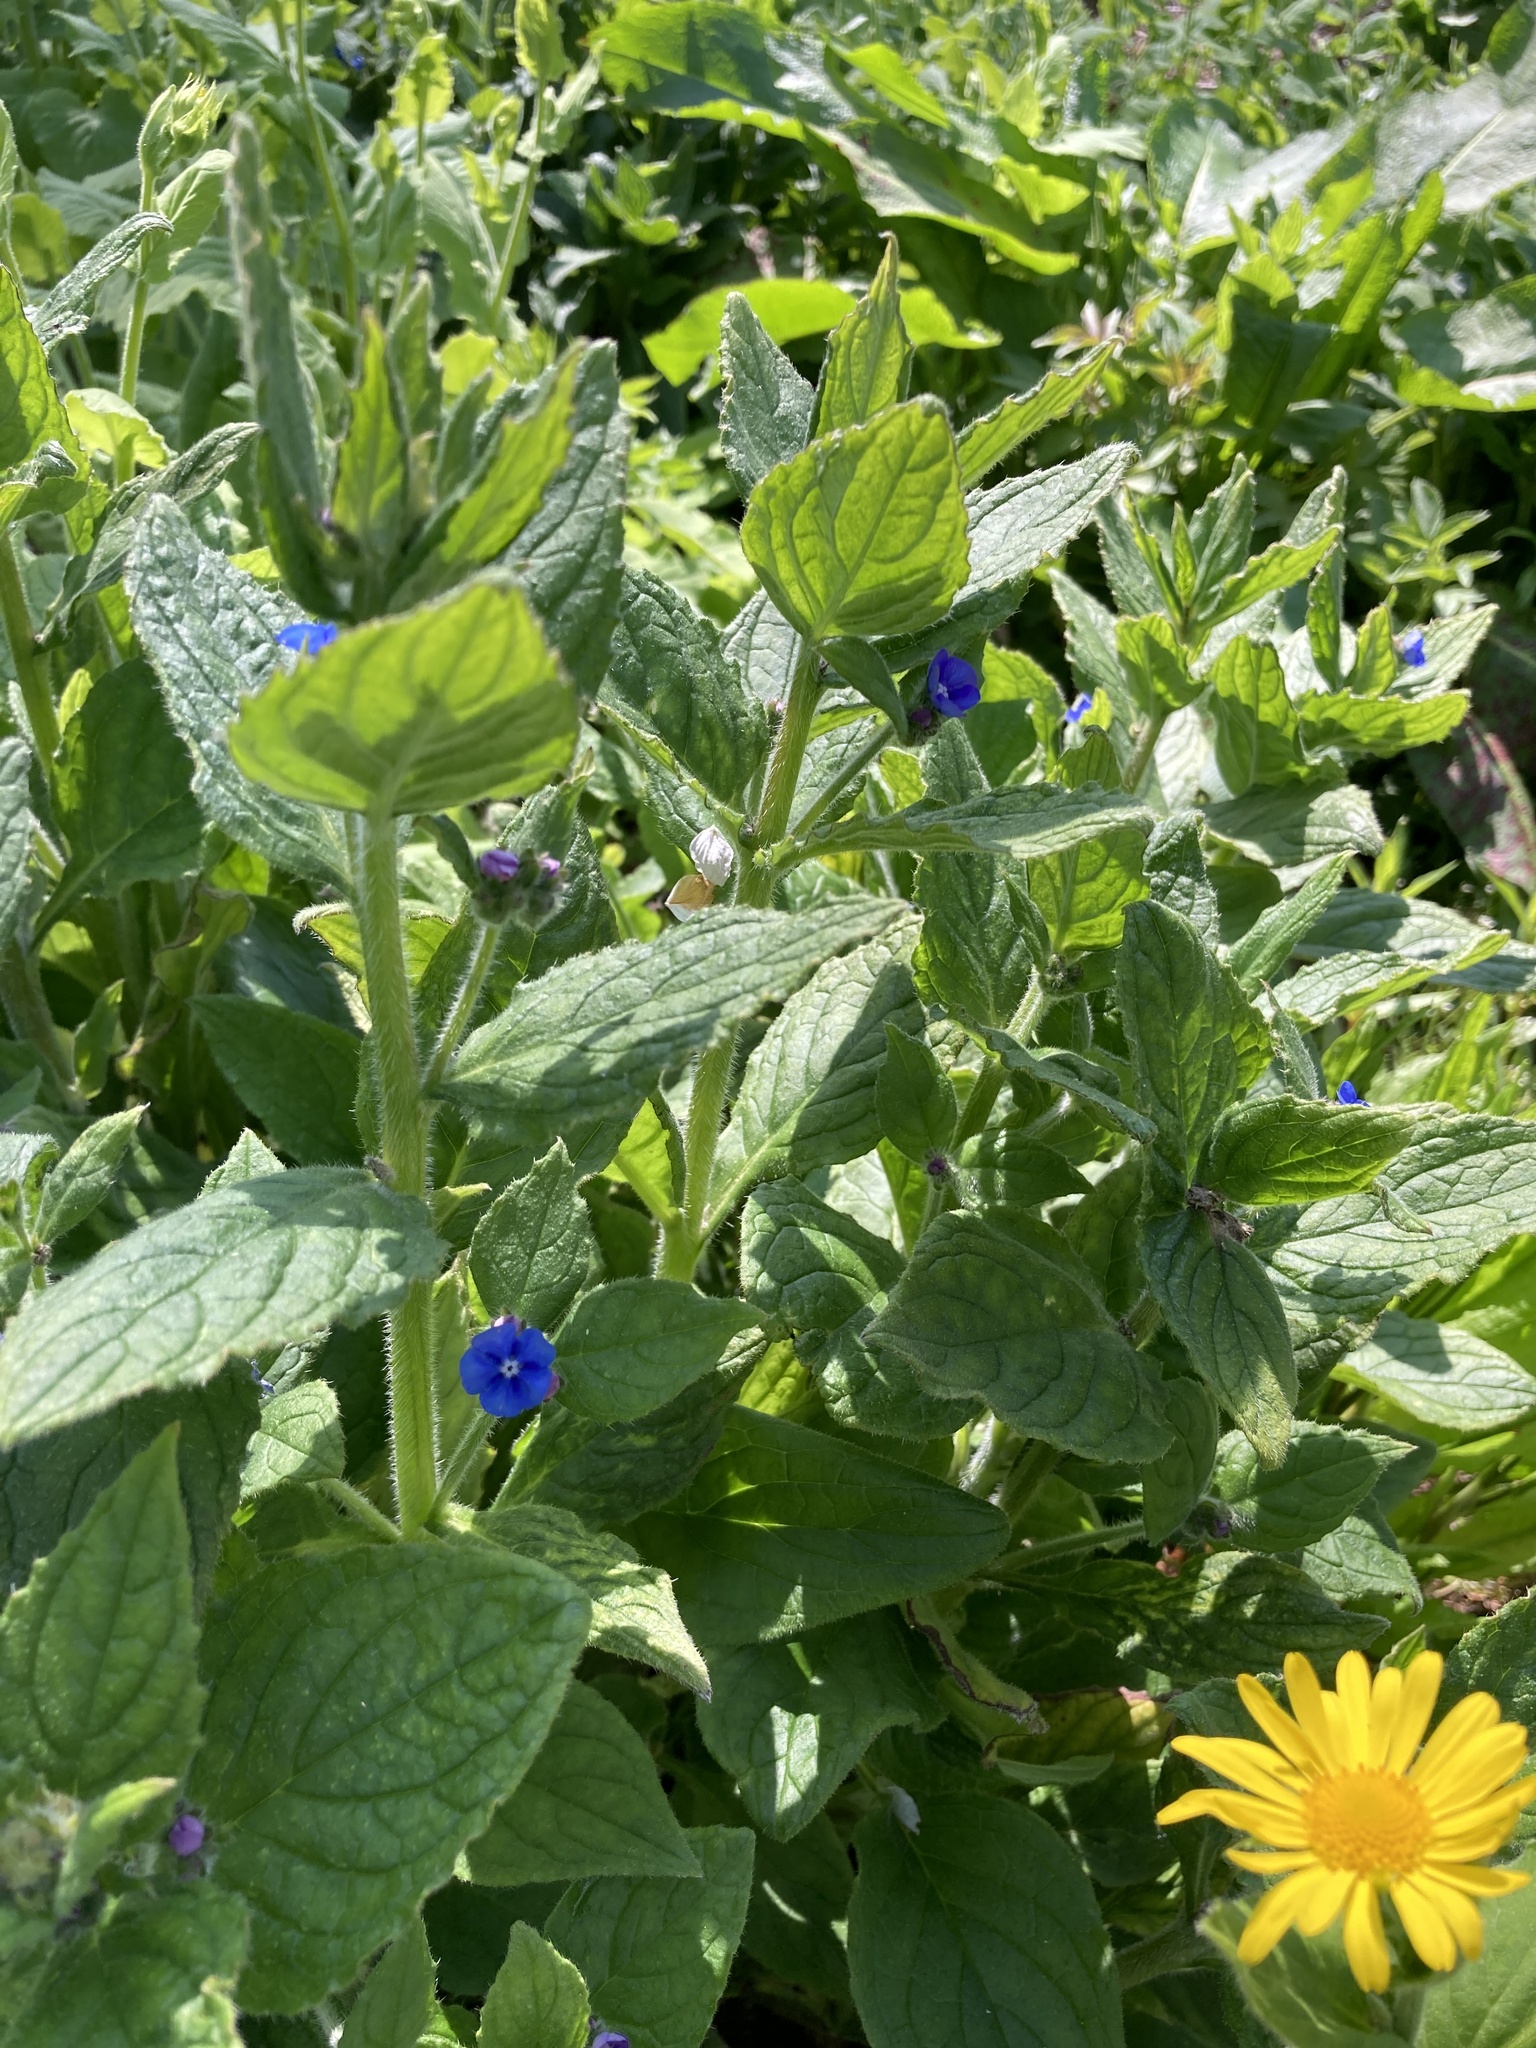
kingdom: Plantae
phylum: Tracheophyta
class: Magnoliopsida
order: Boraginales
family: Boraginaceae
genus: Pentaglottis
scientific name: Pentaglottis sempervirens
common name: Green alkanet
